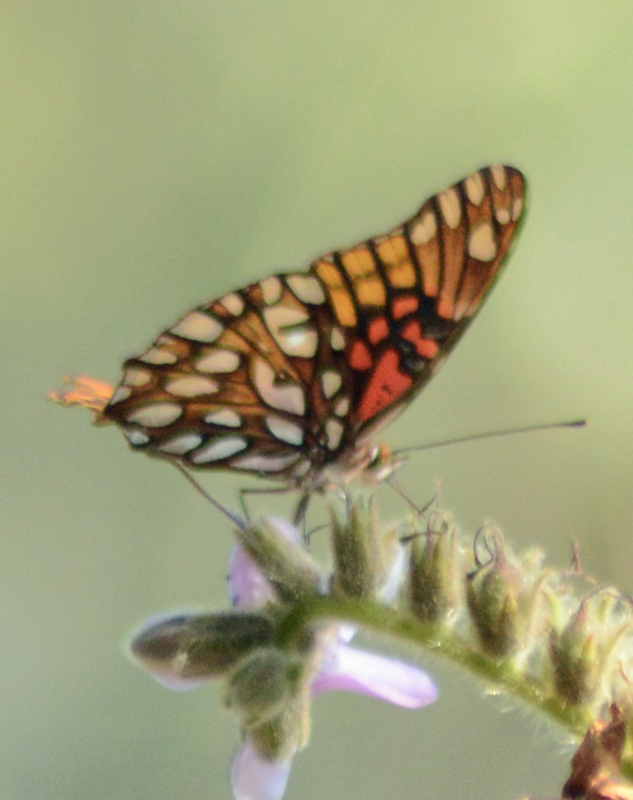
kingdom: Animalia
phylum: Arthropoda
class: Insecta
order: Lepidoptera
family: Nymphalidae
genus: Dione
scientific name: Dione moneta
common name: Mexican silverspot
